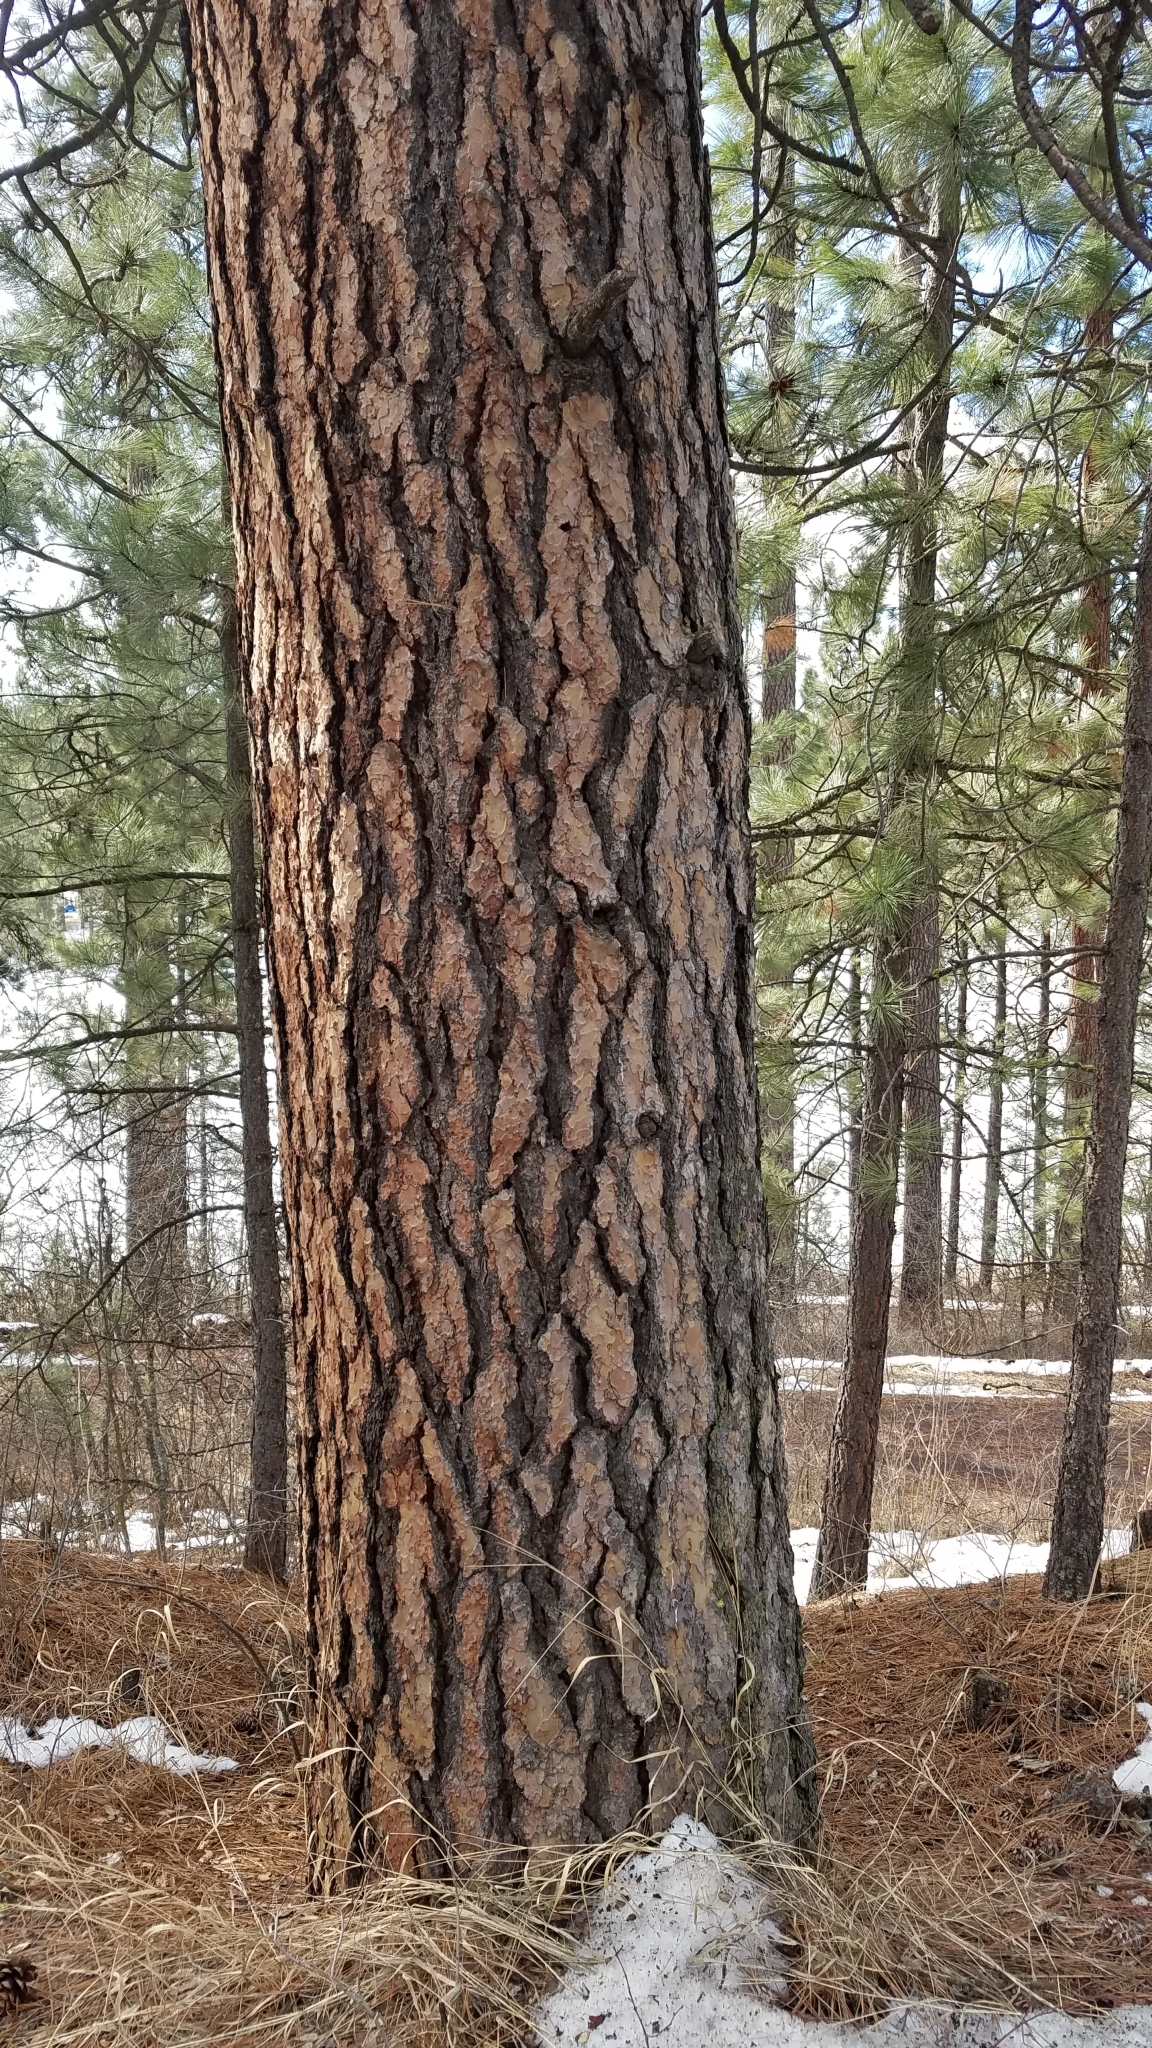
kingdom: Plantae
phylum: Tracheophyta
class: Pinopsida
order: Pinales
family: Pinaceae
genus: Pinus
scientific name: Pinus ponderosa
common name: Western yellow-pine
